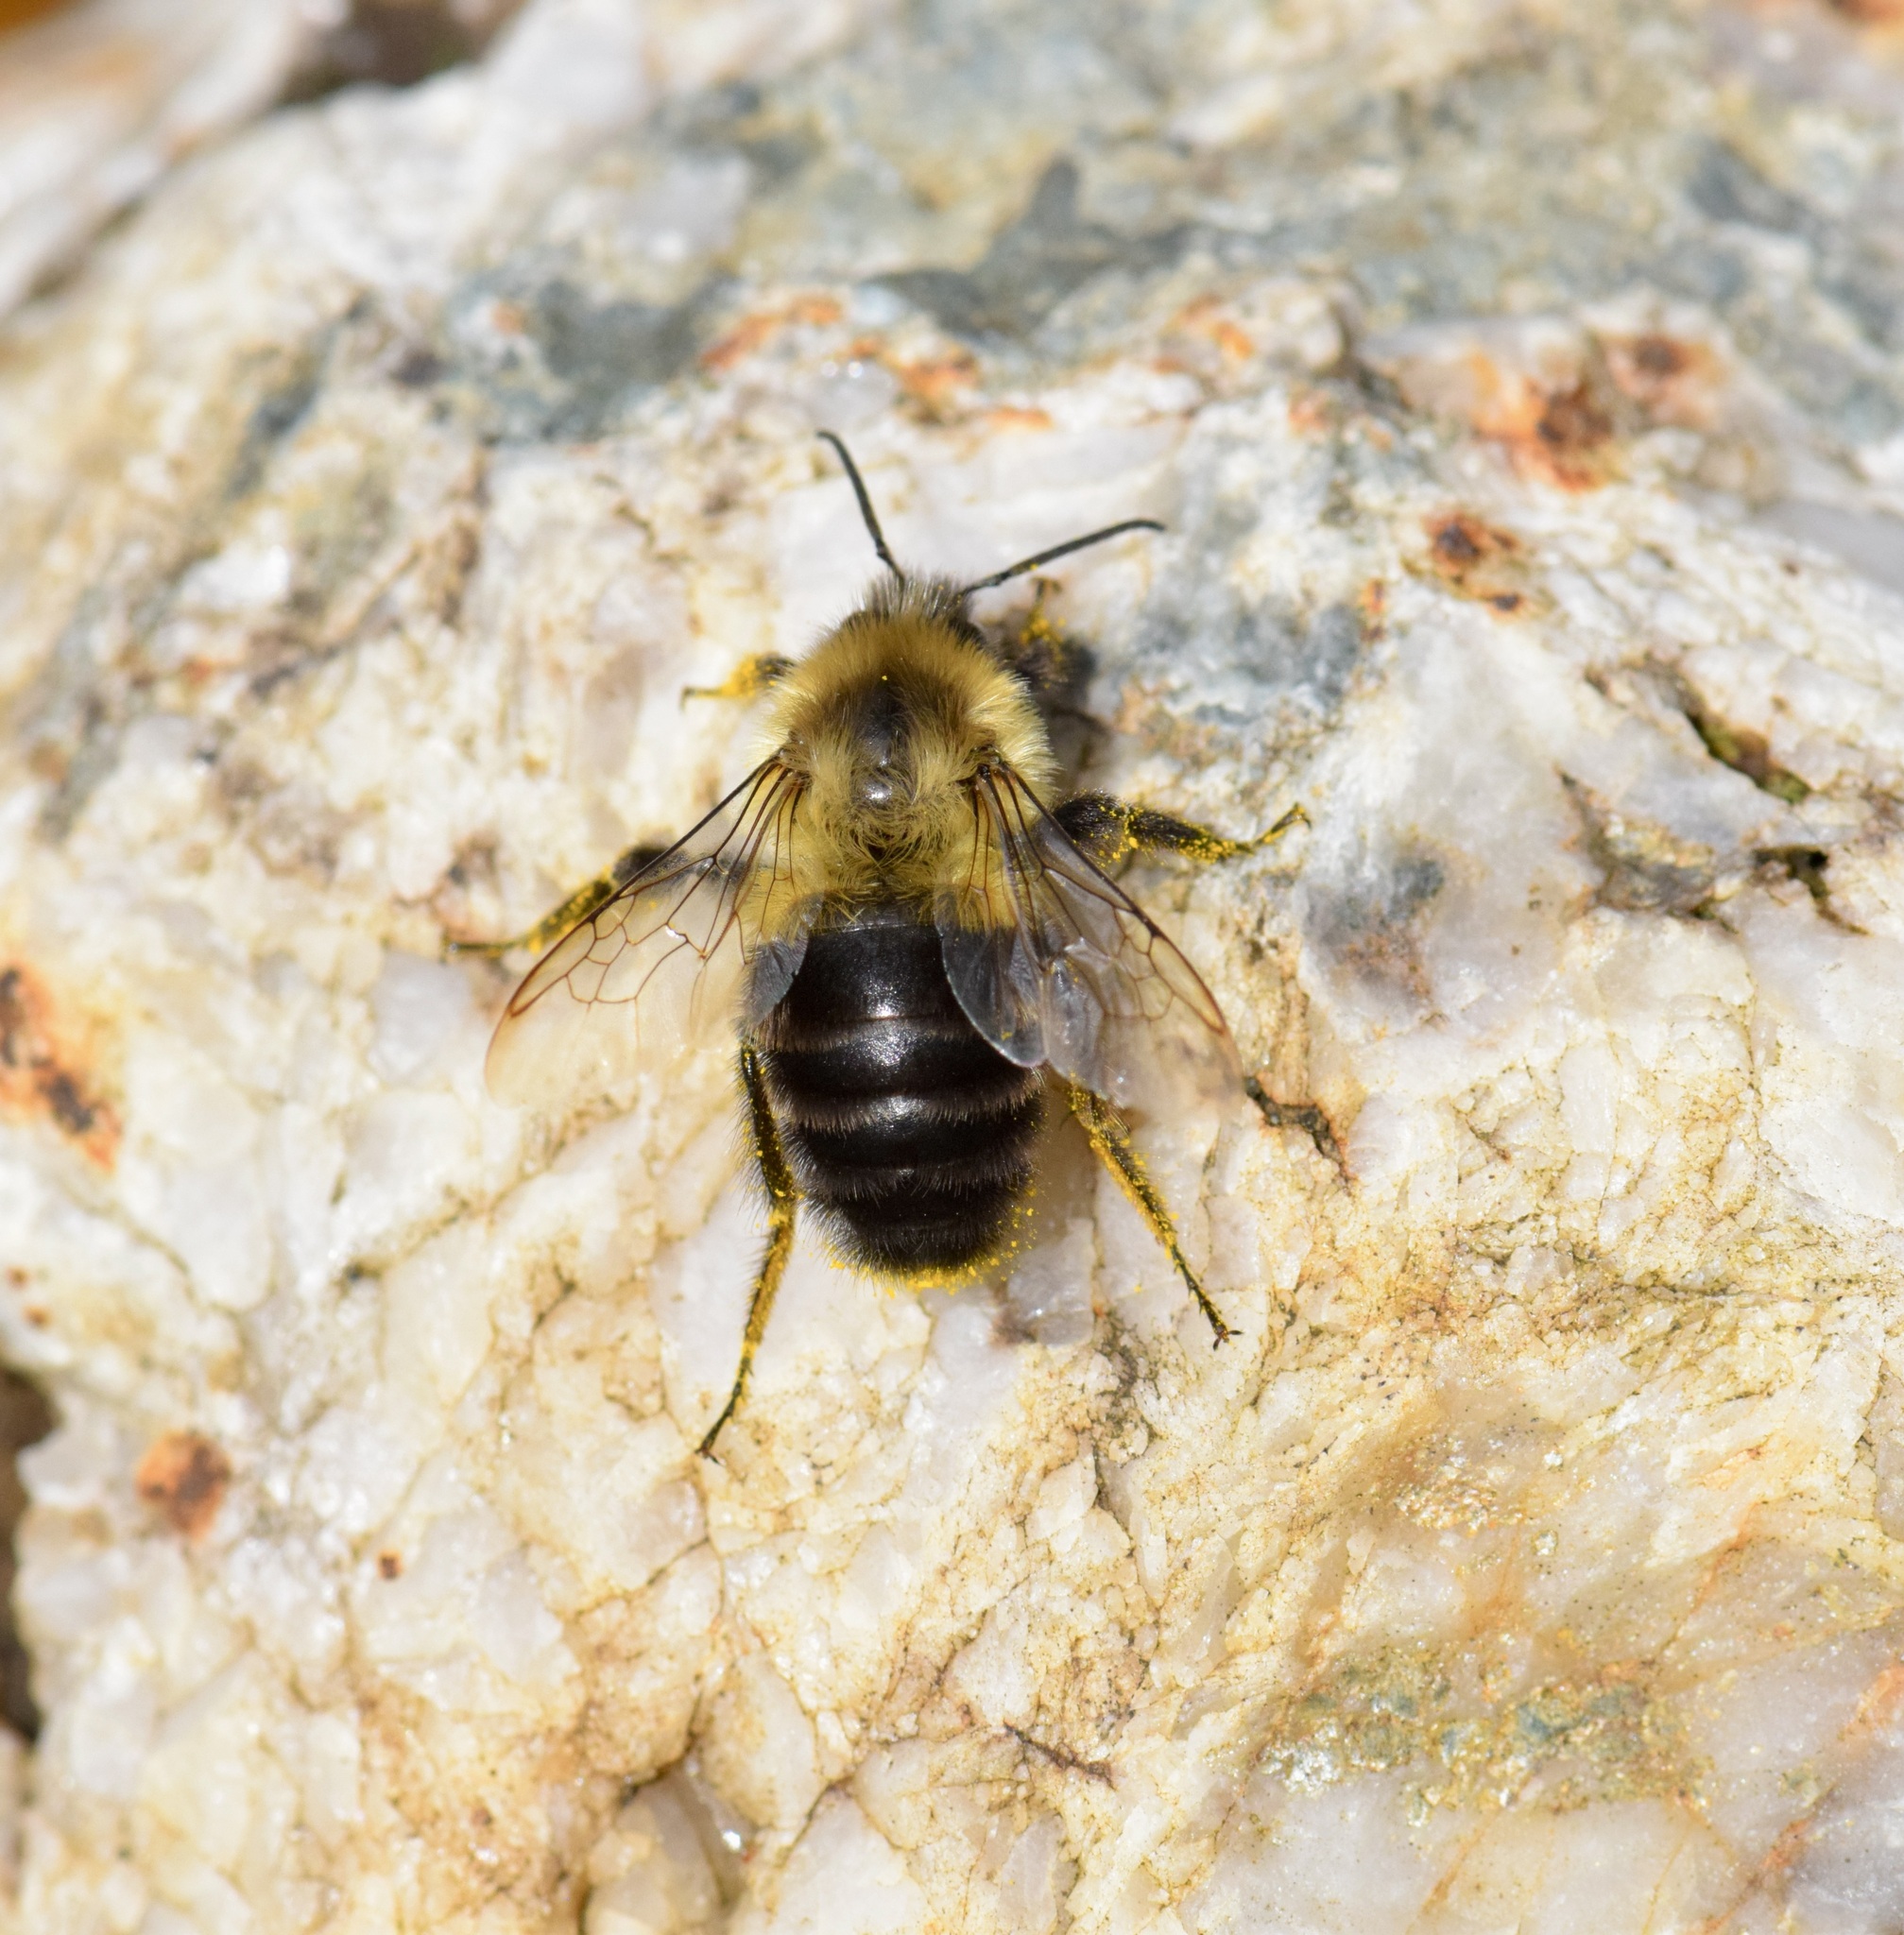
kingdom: Animalia
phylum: Arthropoda
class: Insecta
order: Hymenoptera
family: Apidae
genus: Bombus
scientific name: Bombus impatiens
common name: Common eastern bumble bee
